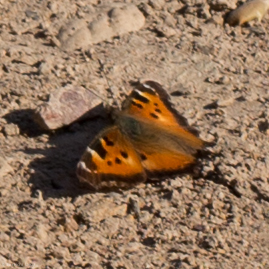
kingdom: Animalia
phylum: Arthropoda
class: Insecta
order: Lepidoptera
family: Nymphalidae
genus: Nymphalis
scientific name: Nymphalis californica
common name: California tortoiseshell
